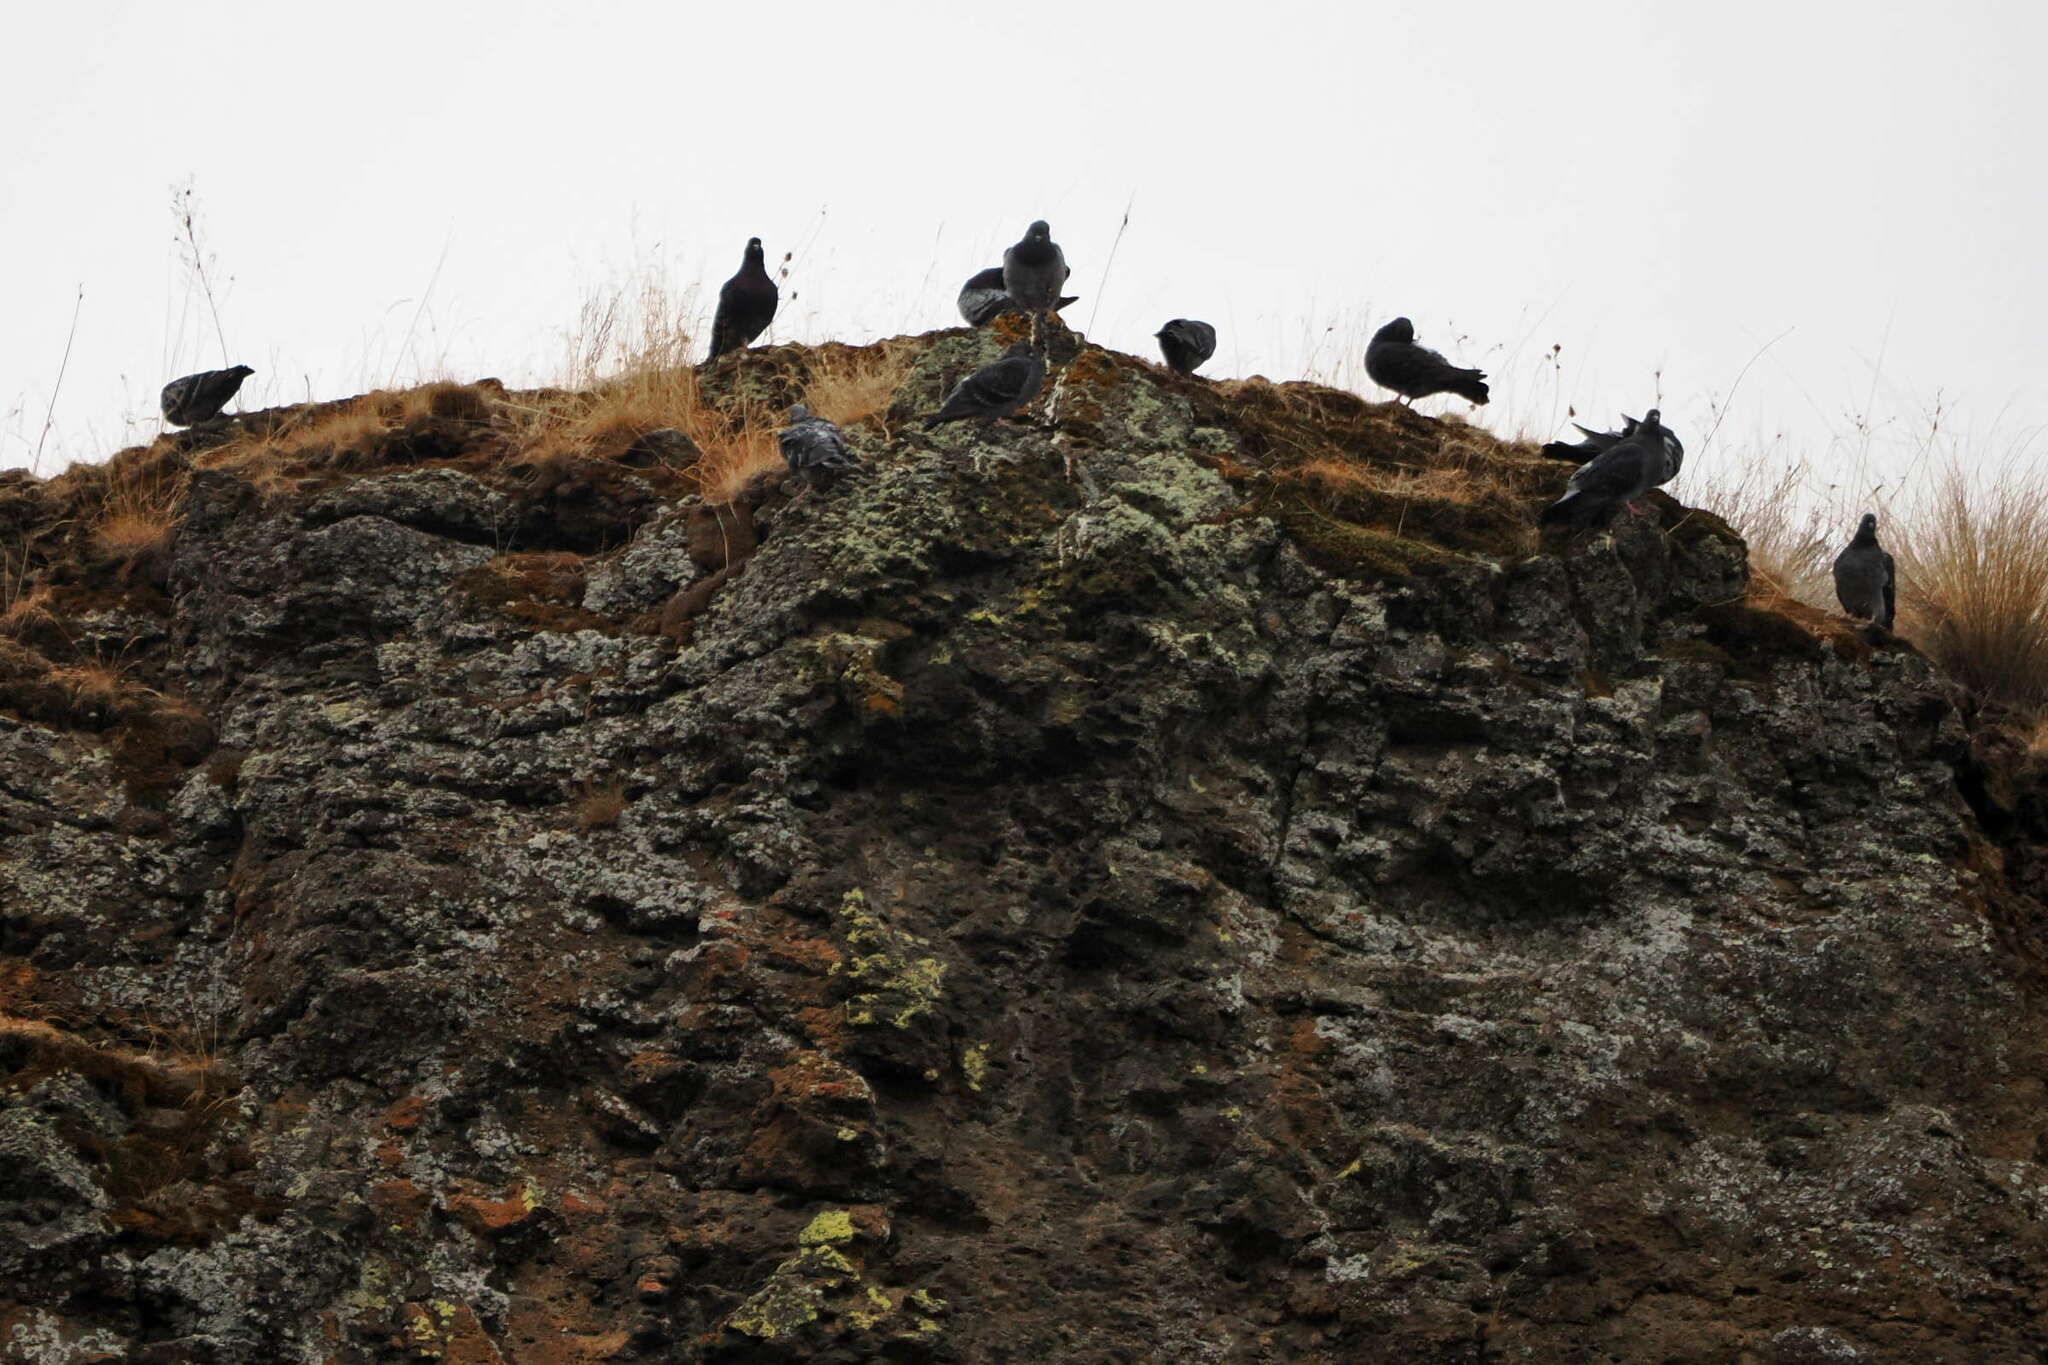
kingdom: Animalia
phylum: Chordata
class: Aves
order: Columbiformes
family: Columbidae
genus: Columba
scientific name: Columba livia
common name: Rock pigeon
